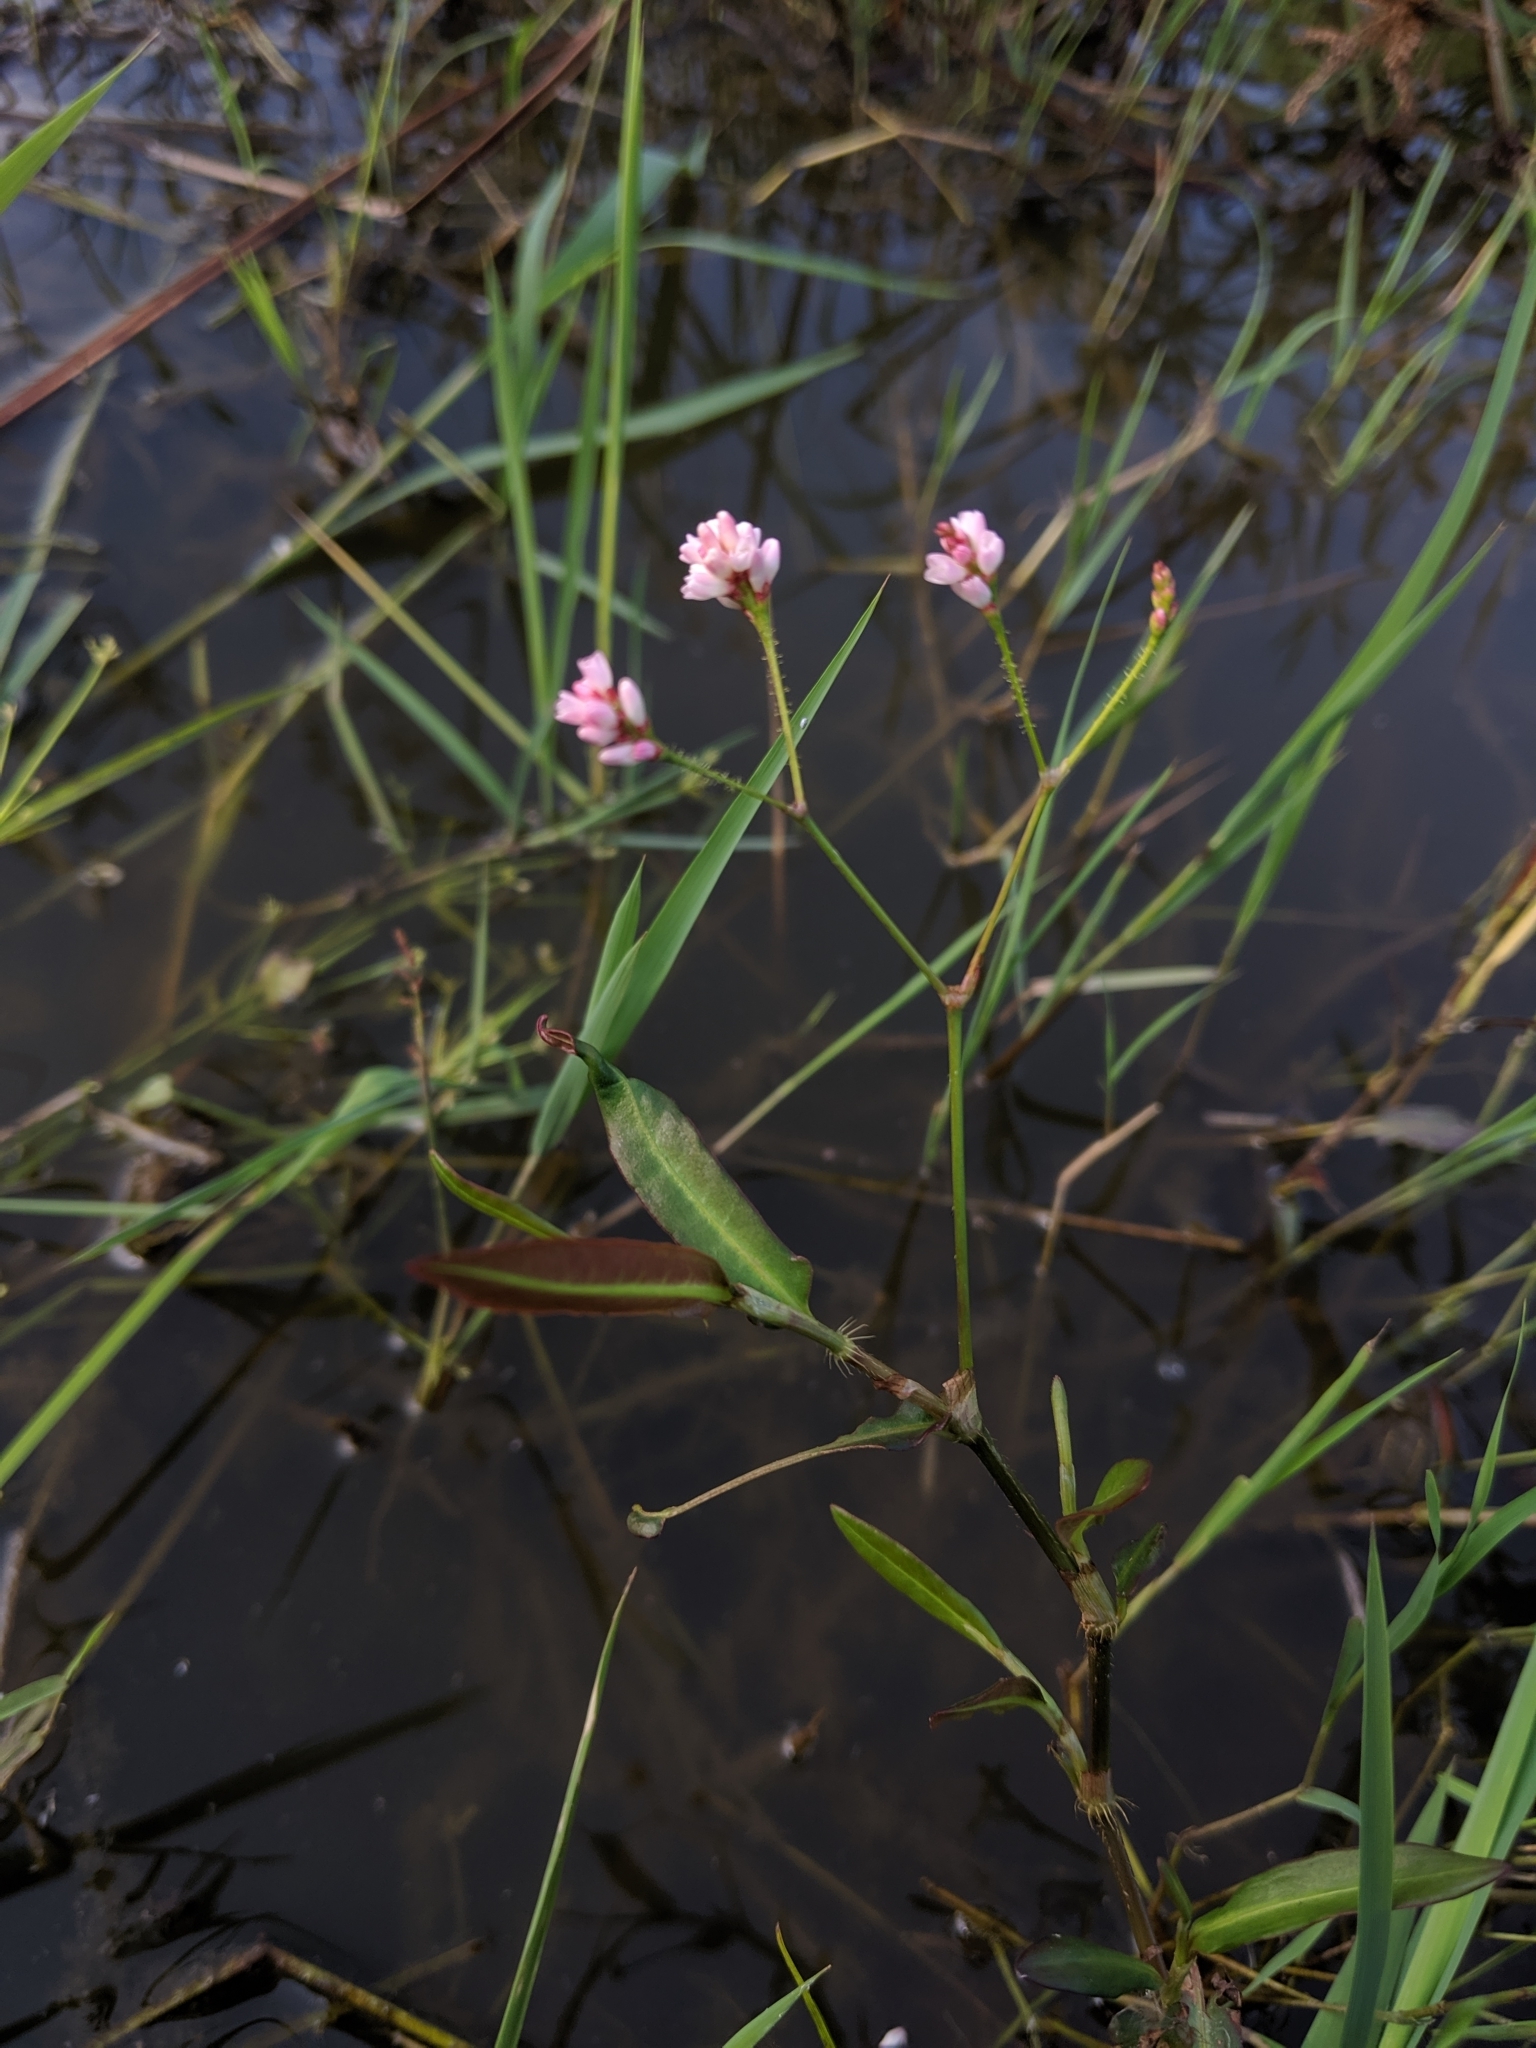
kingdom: Plantae
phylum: Tracheophyta
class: Magnoliopsida
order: Caryophyllales
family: Polygonaceae
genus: Persicaria
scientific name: Persicaria dichotoma
